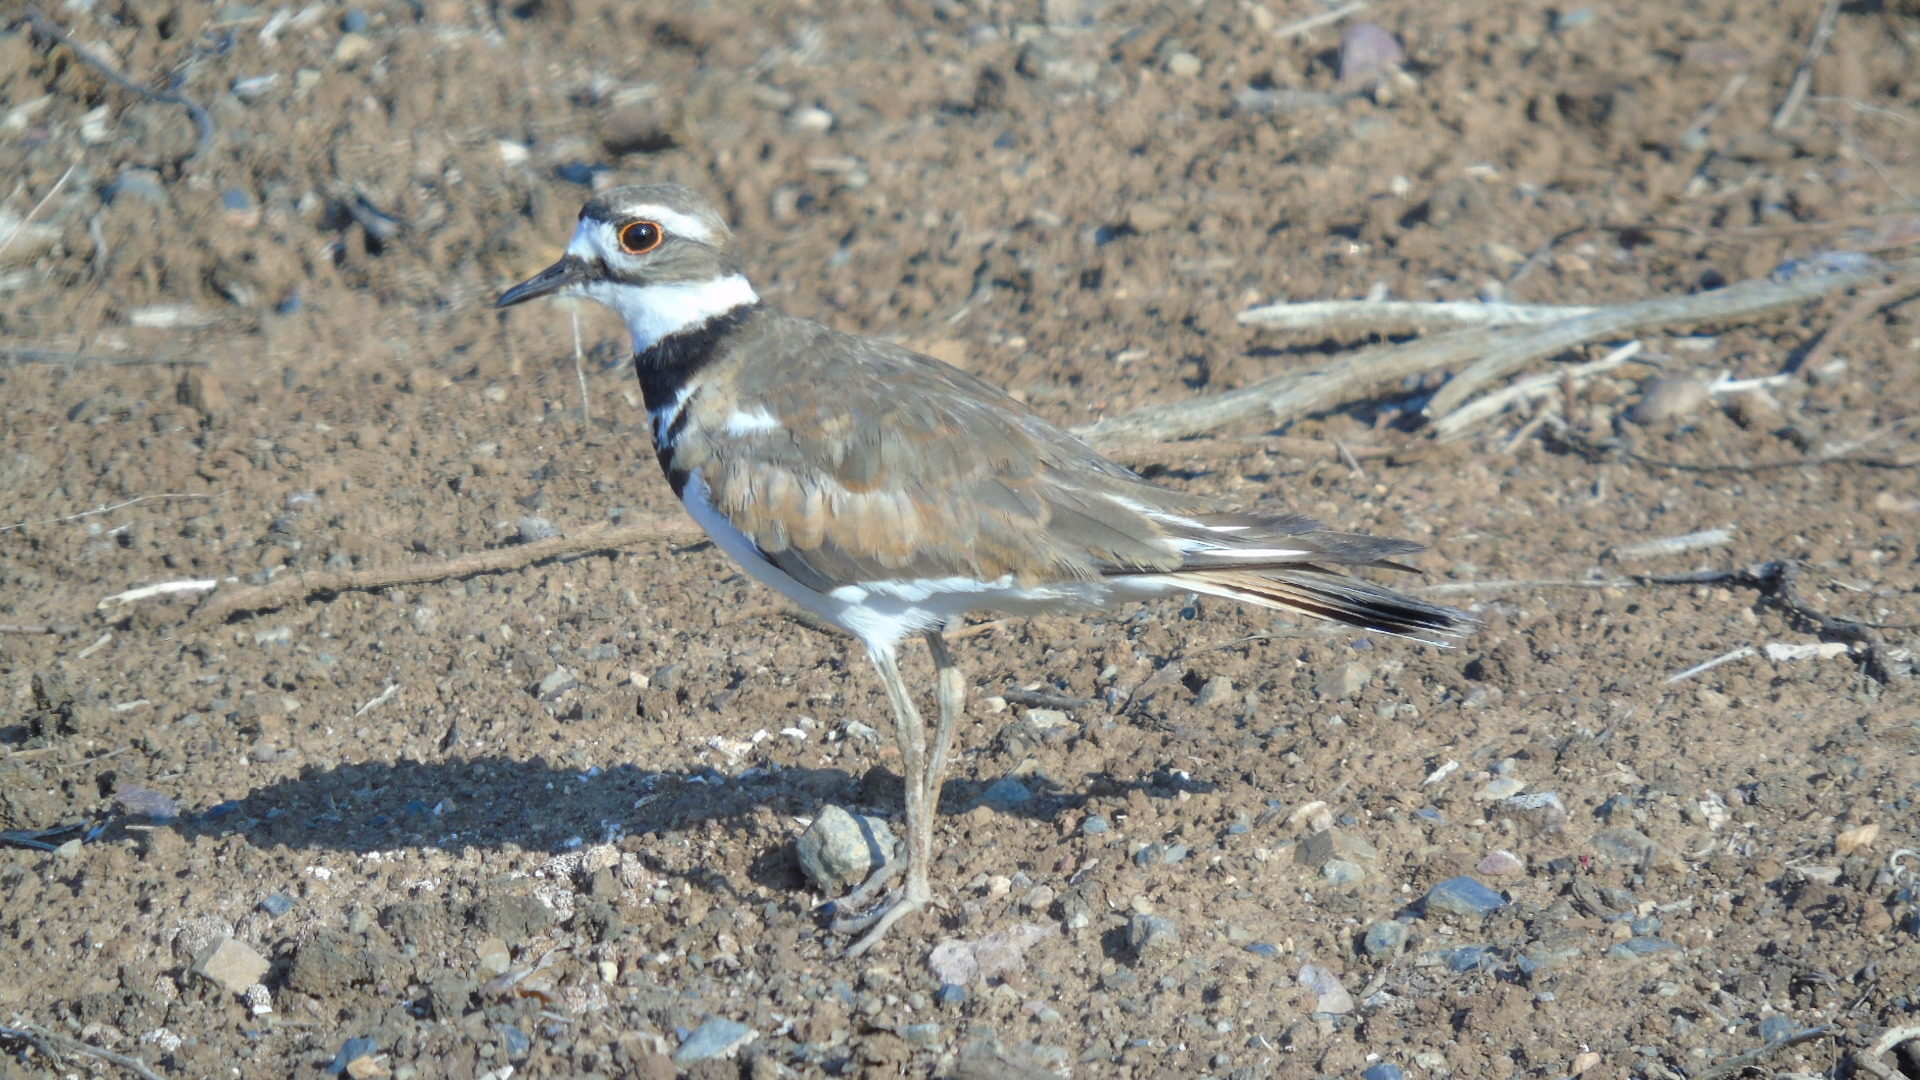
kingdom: Animalia
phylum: Chordata
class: Aves
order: Charadriiformes
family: Charadriidae
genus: Charadrius
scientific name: Charadrius vociferus
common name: Killdeer
